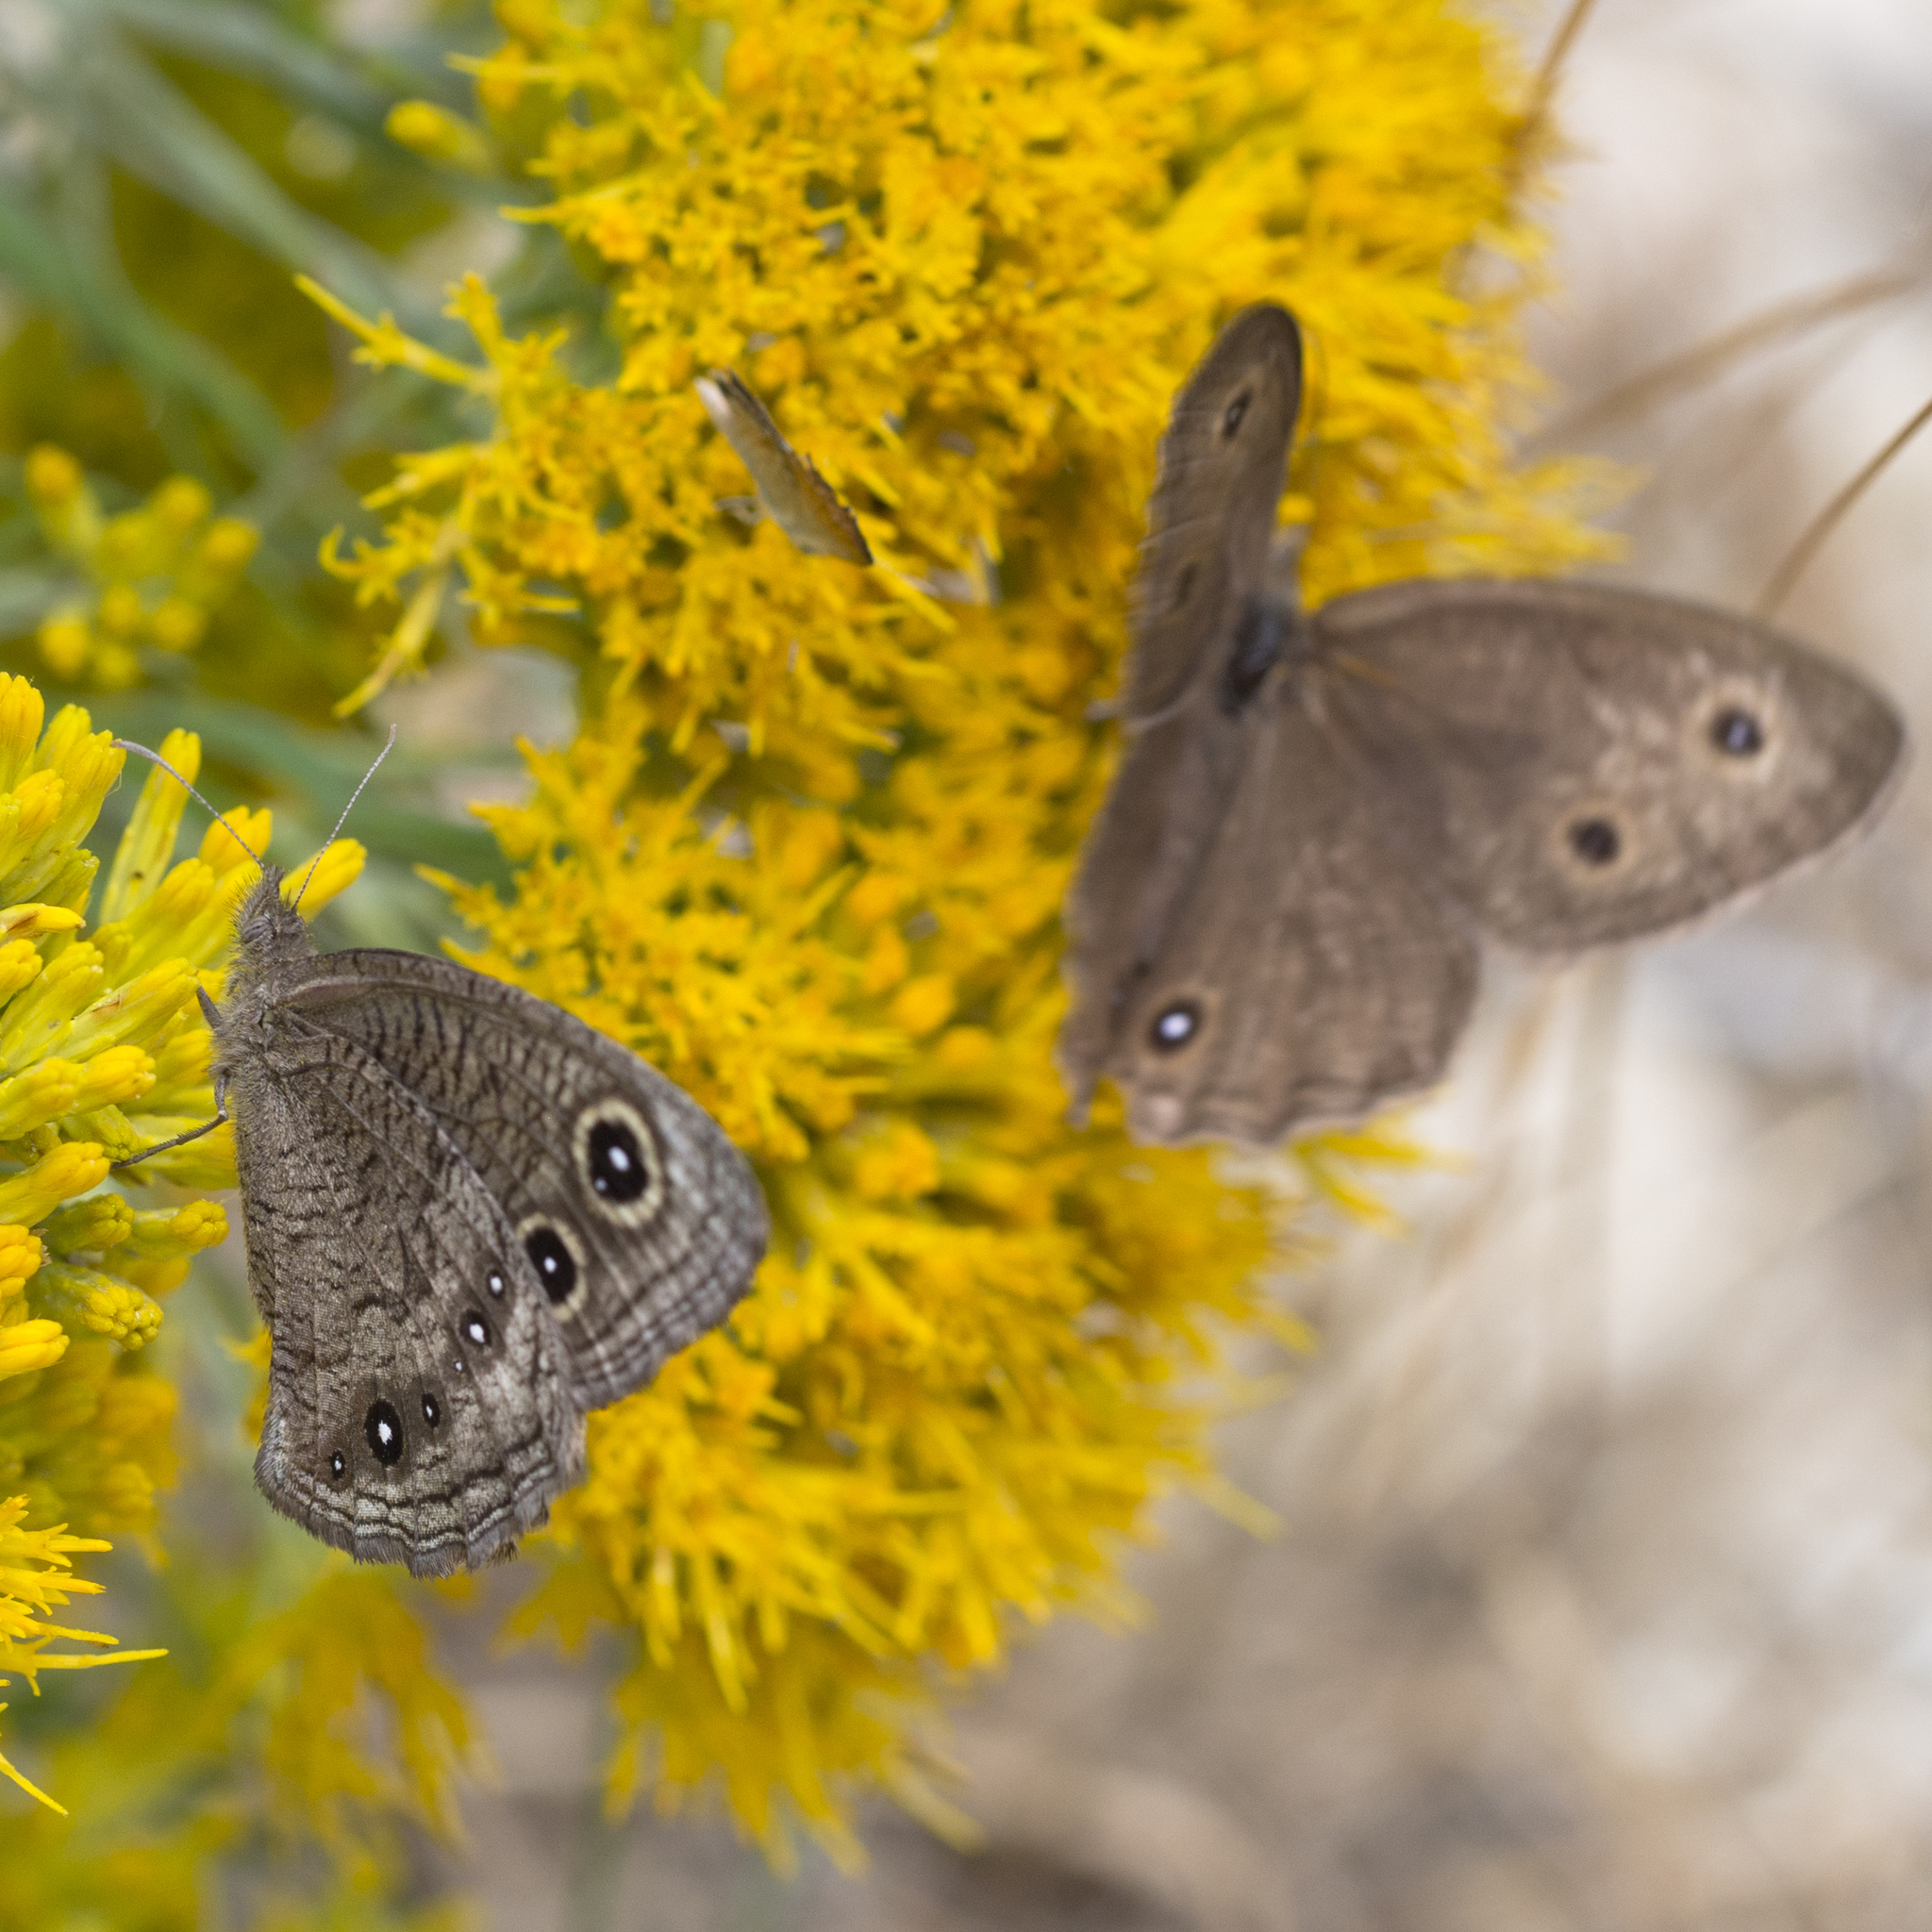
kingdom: Animalia
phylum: Arthropoda
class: Insecta
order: Lepidoptera
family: Nymphalidae
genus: Cercyonis
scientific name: Cercyonis sthenele
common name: Great basin wood-nymph
